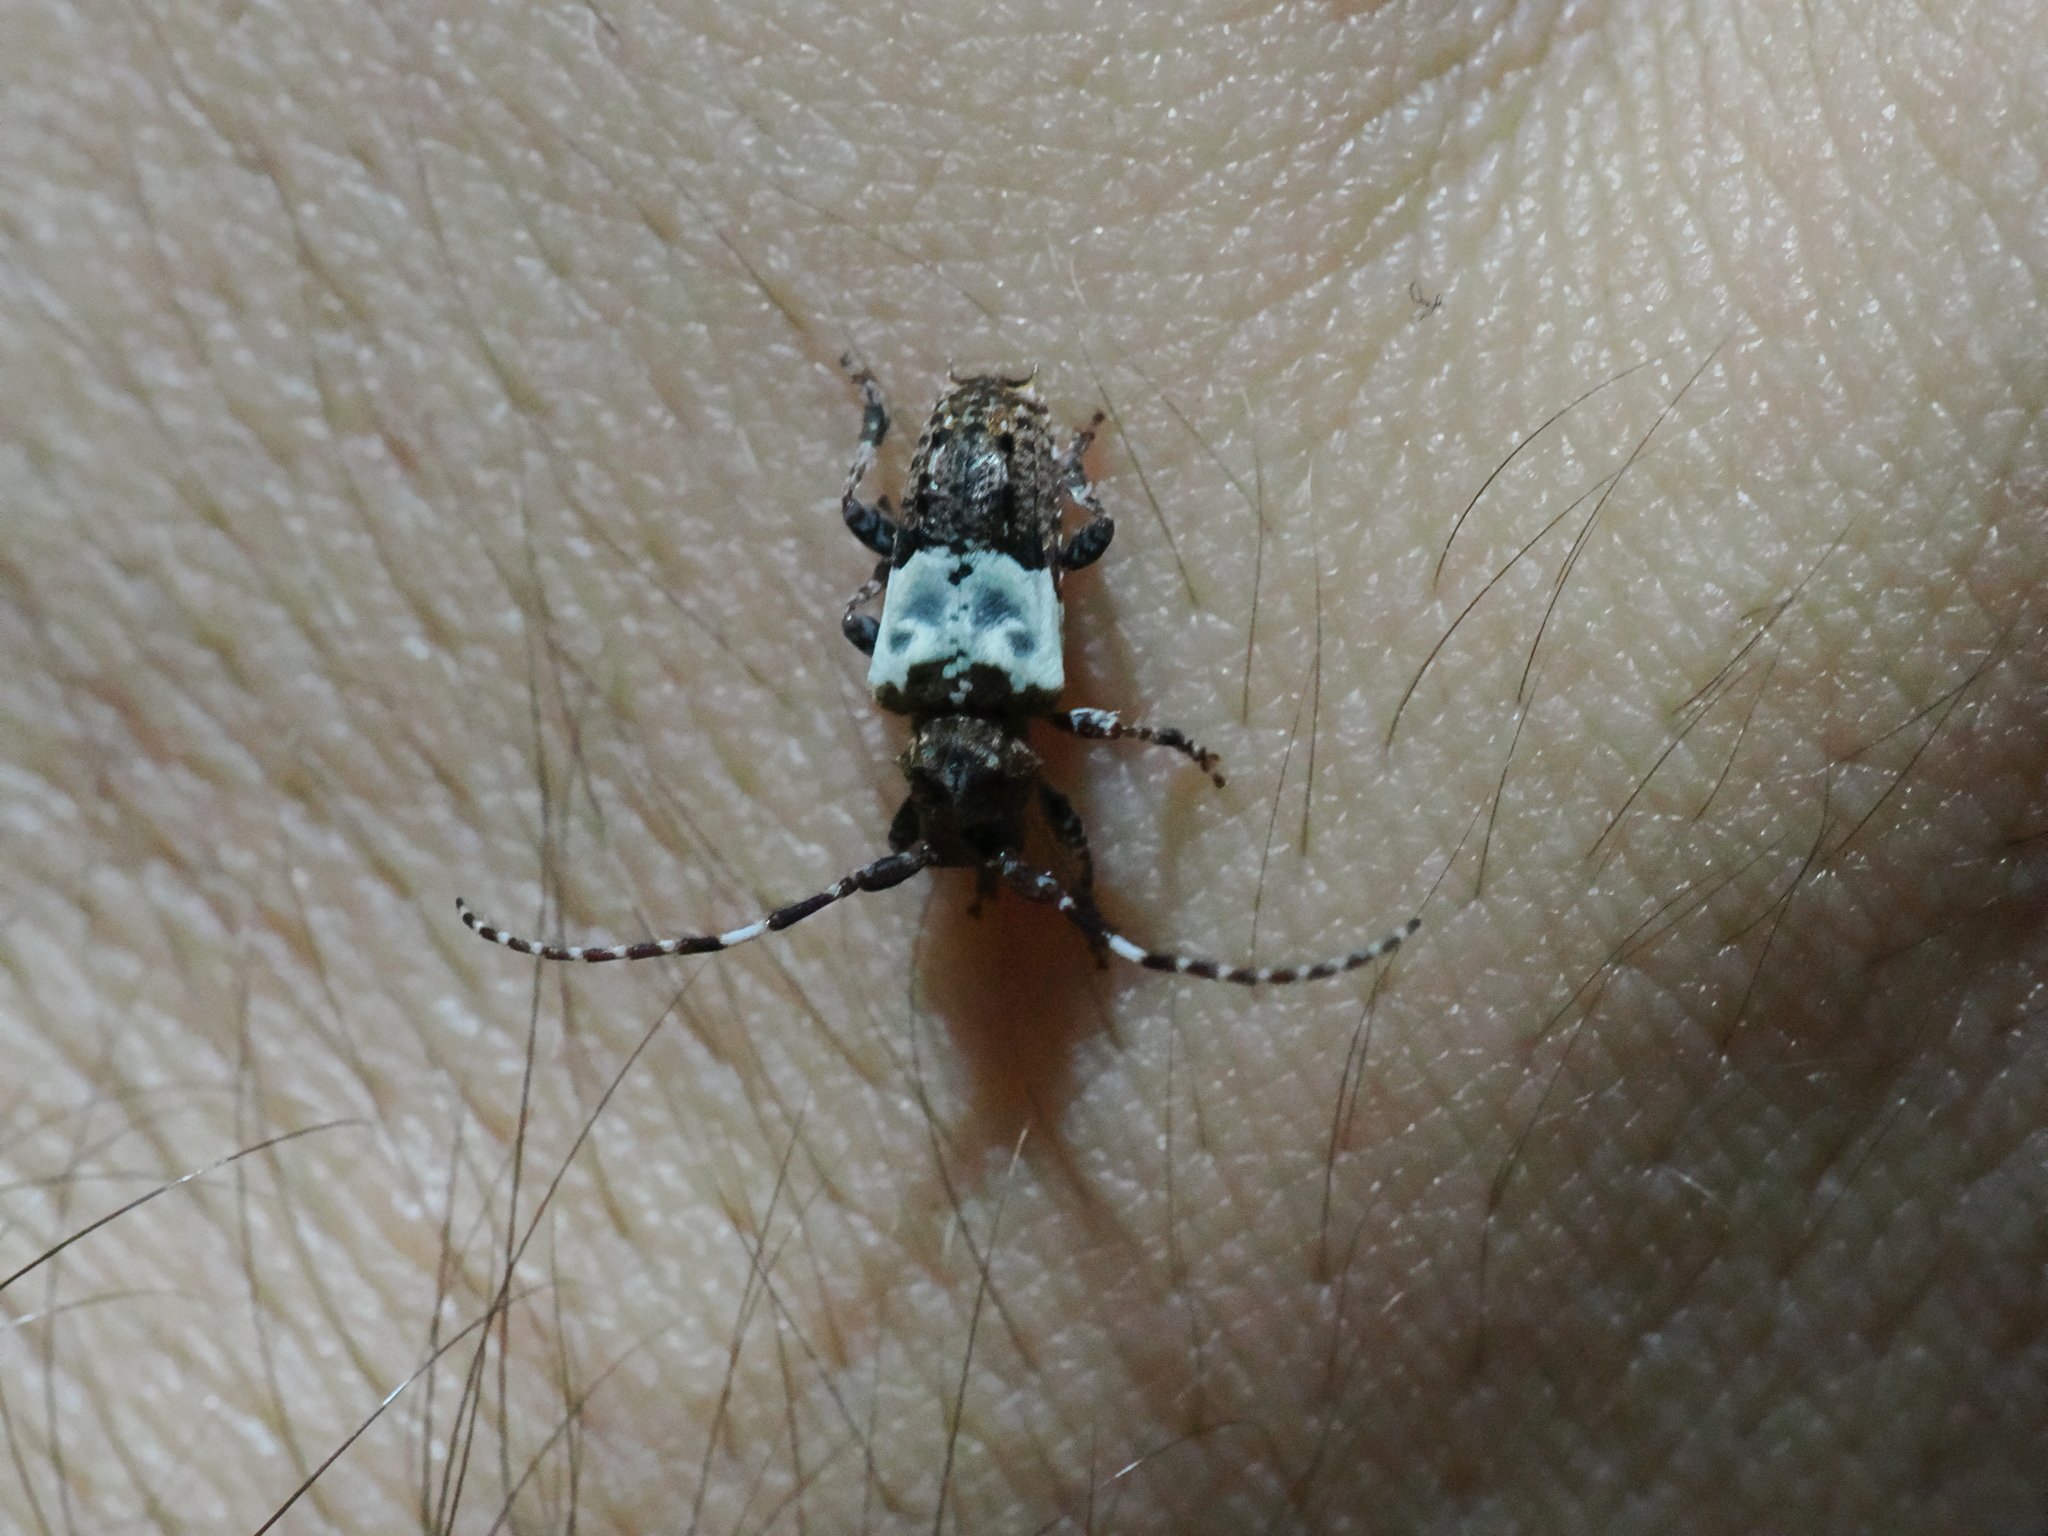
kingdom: Animalia
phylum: Arthropoda
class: Insecta
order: Coleoptera
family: Cerambycidae
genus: Pogonocherus
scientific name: Pogonocherus hispidulus
